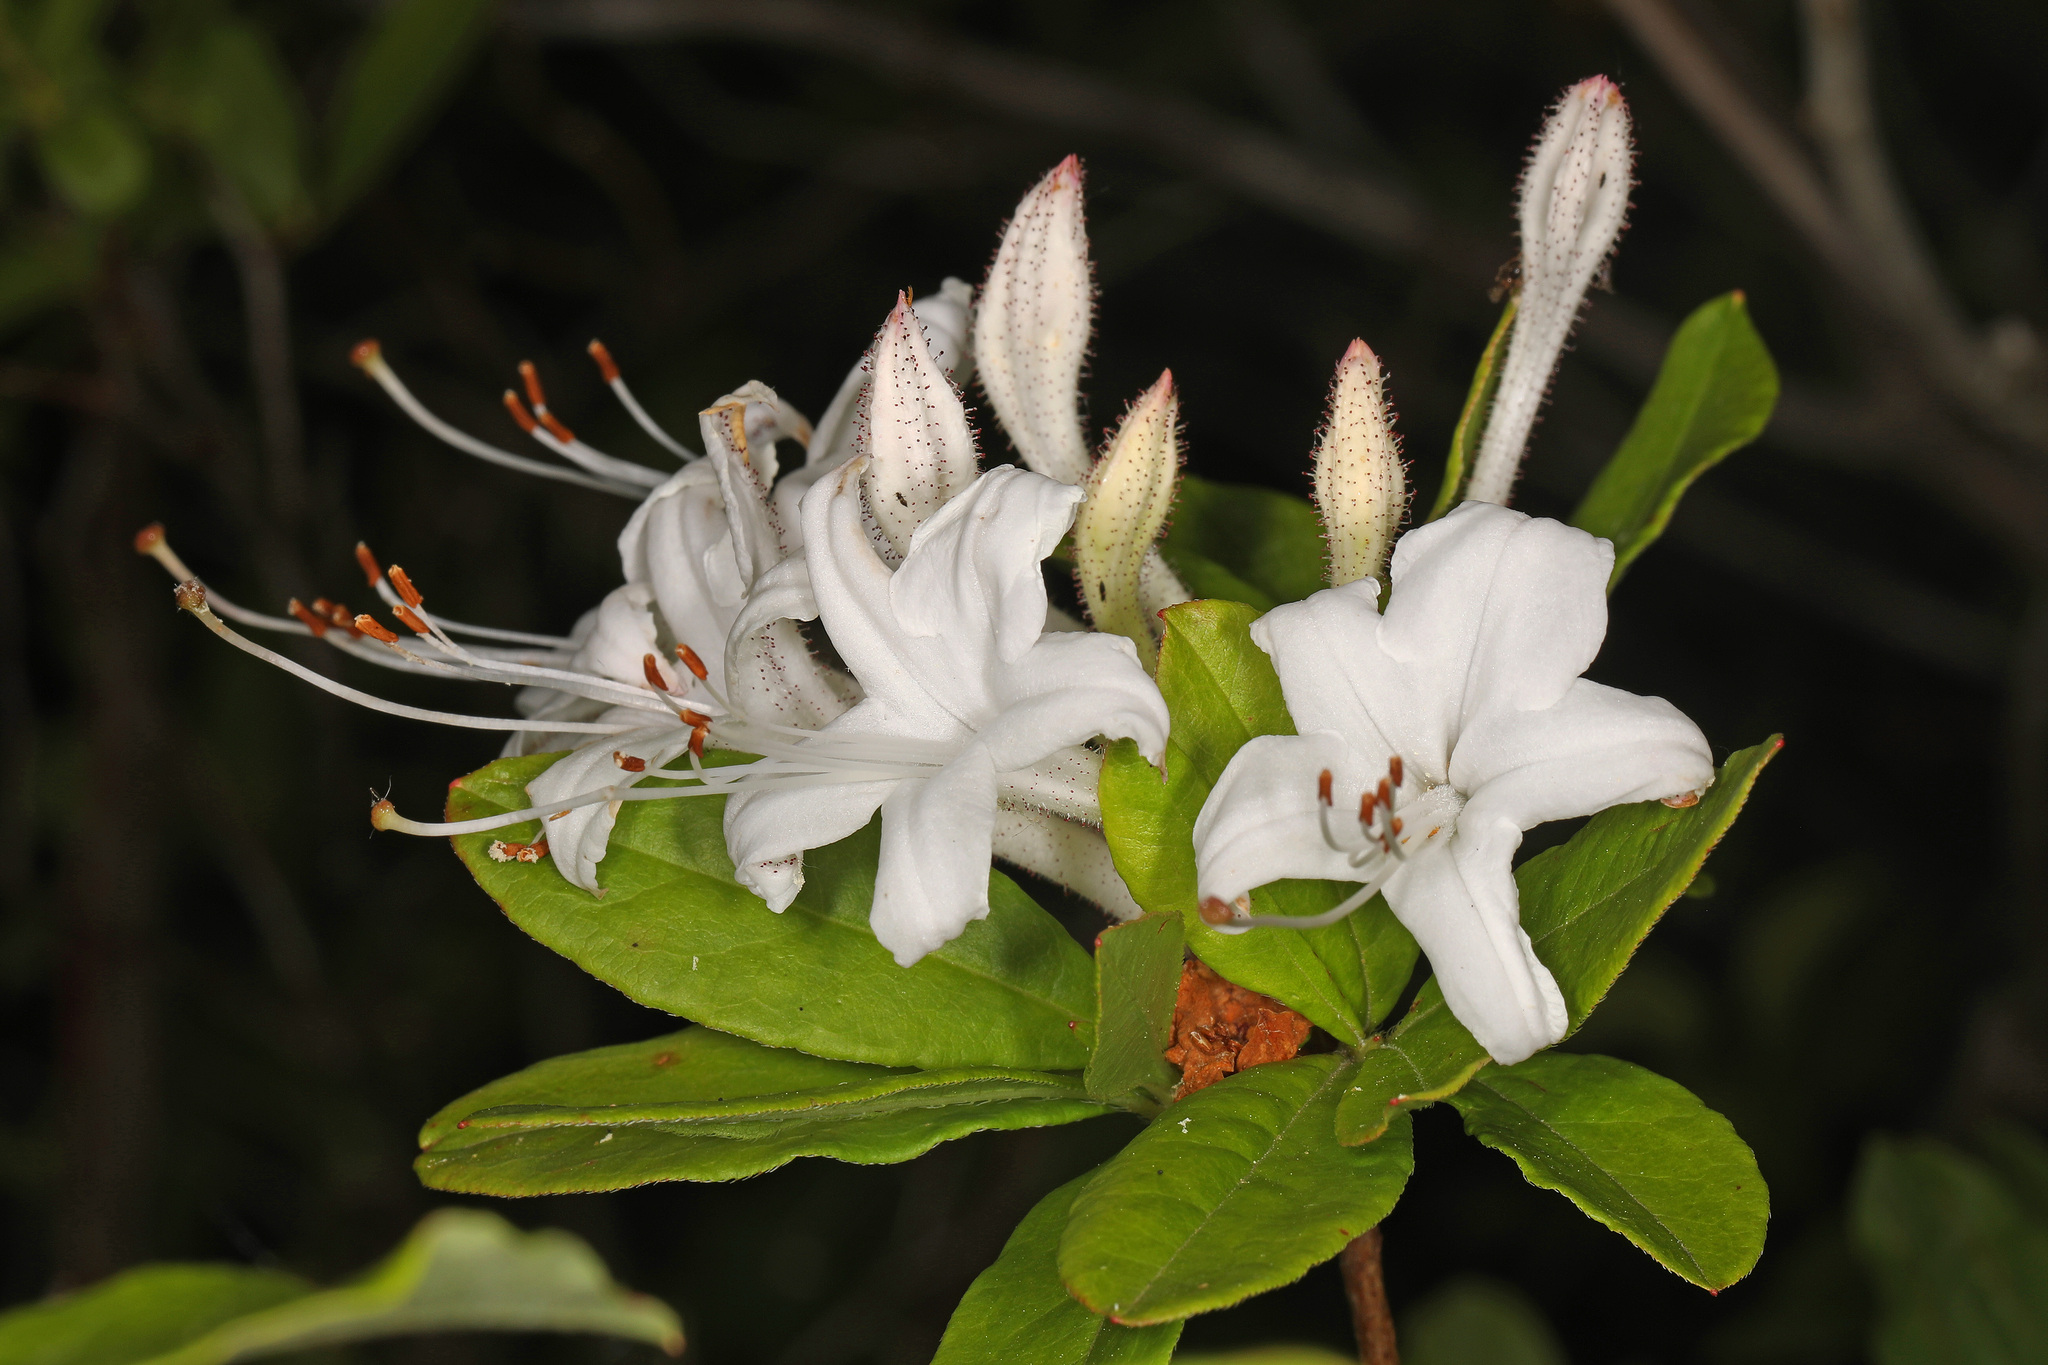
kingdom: Plantae
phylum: Tracheophyta
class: Magnoliopsida
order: Ericales
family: Ericaceae
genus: Rhododendron
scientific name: Rhododendron viscosum
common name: Clammy azalea
